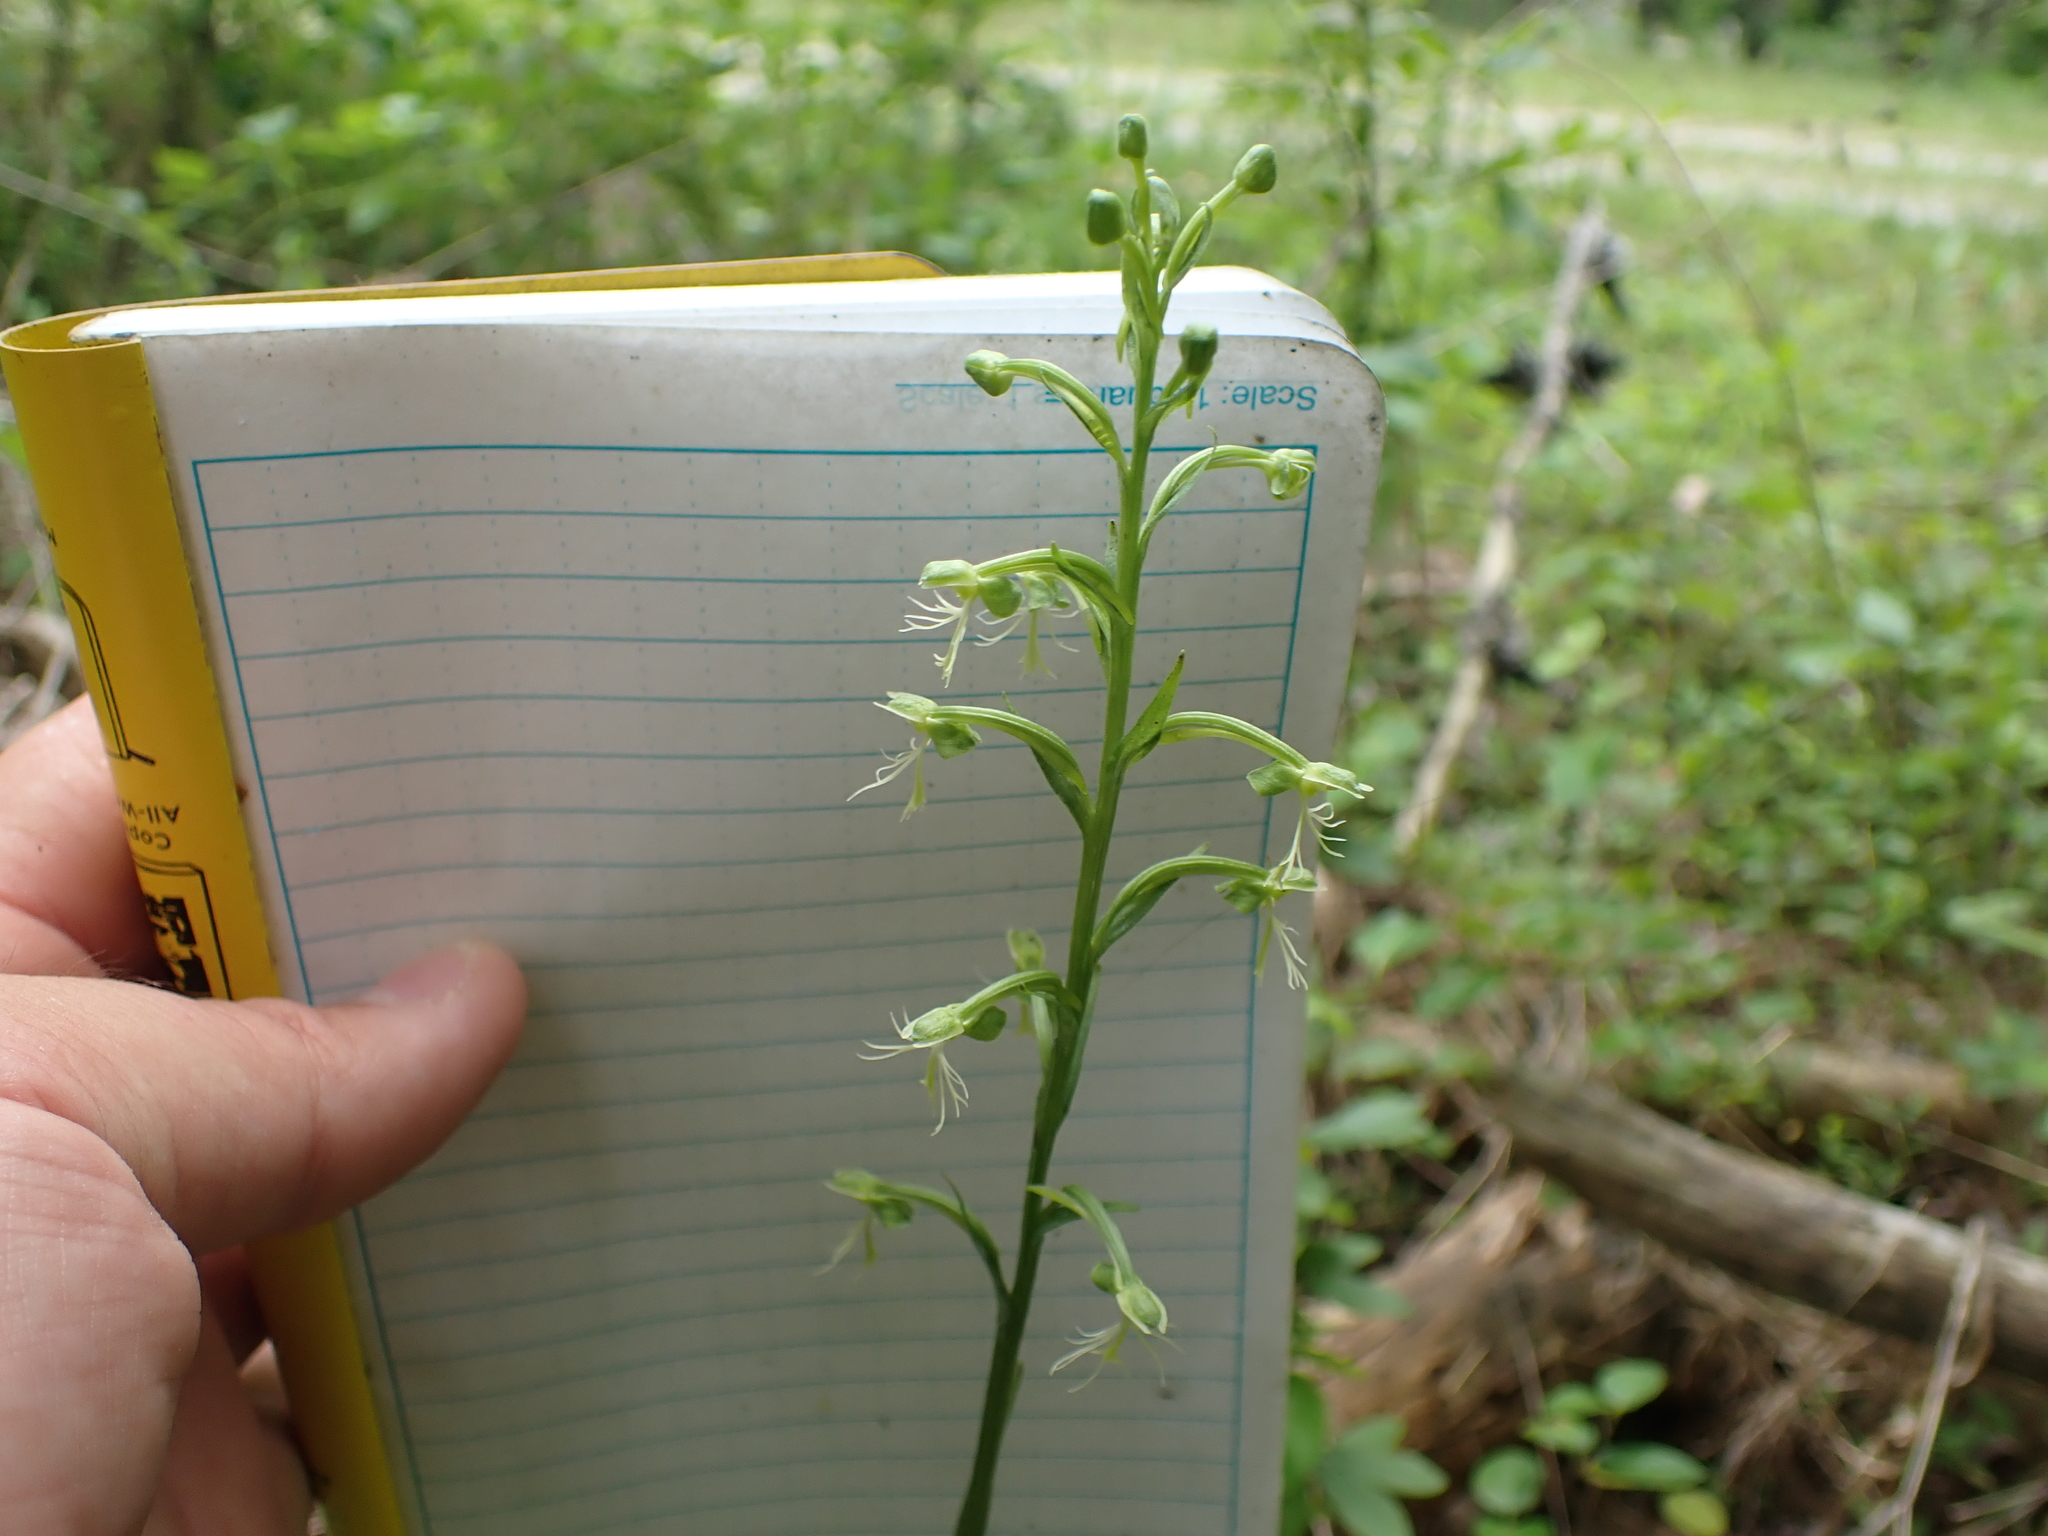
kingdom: Plantae
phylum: Tracheophyta
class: Liliopsida
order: Asparagales
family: Orchidaceae
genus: Platanthera
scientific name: Platanthera lacera
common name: Green fringed orchid
